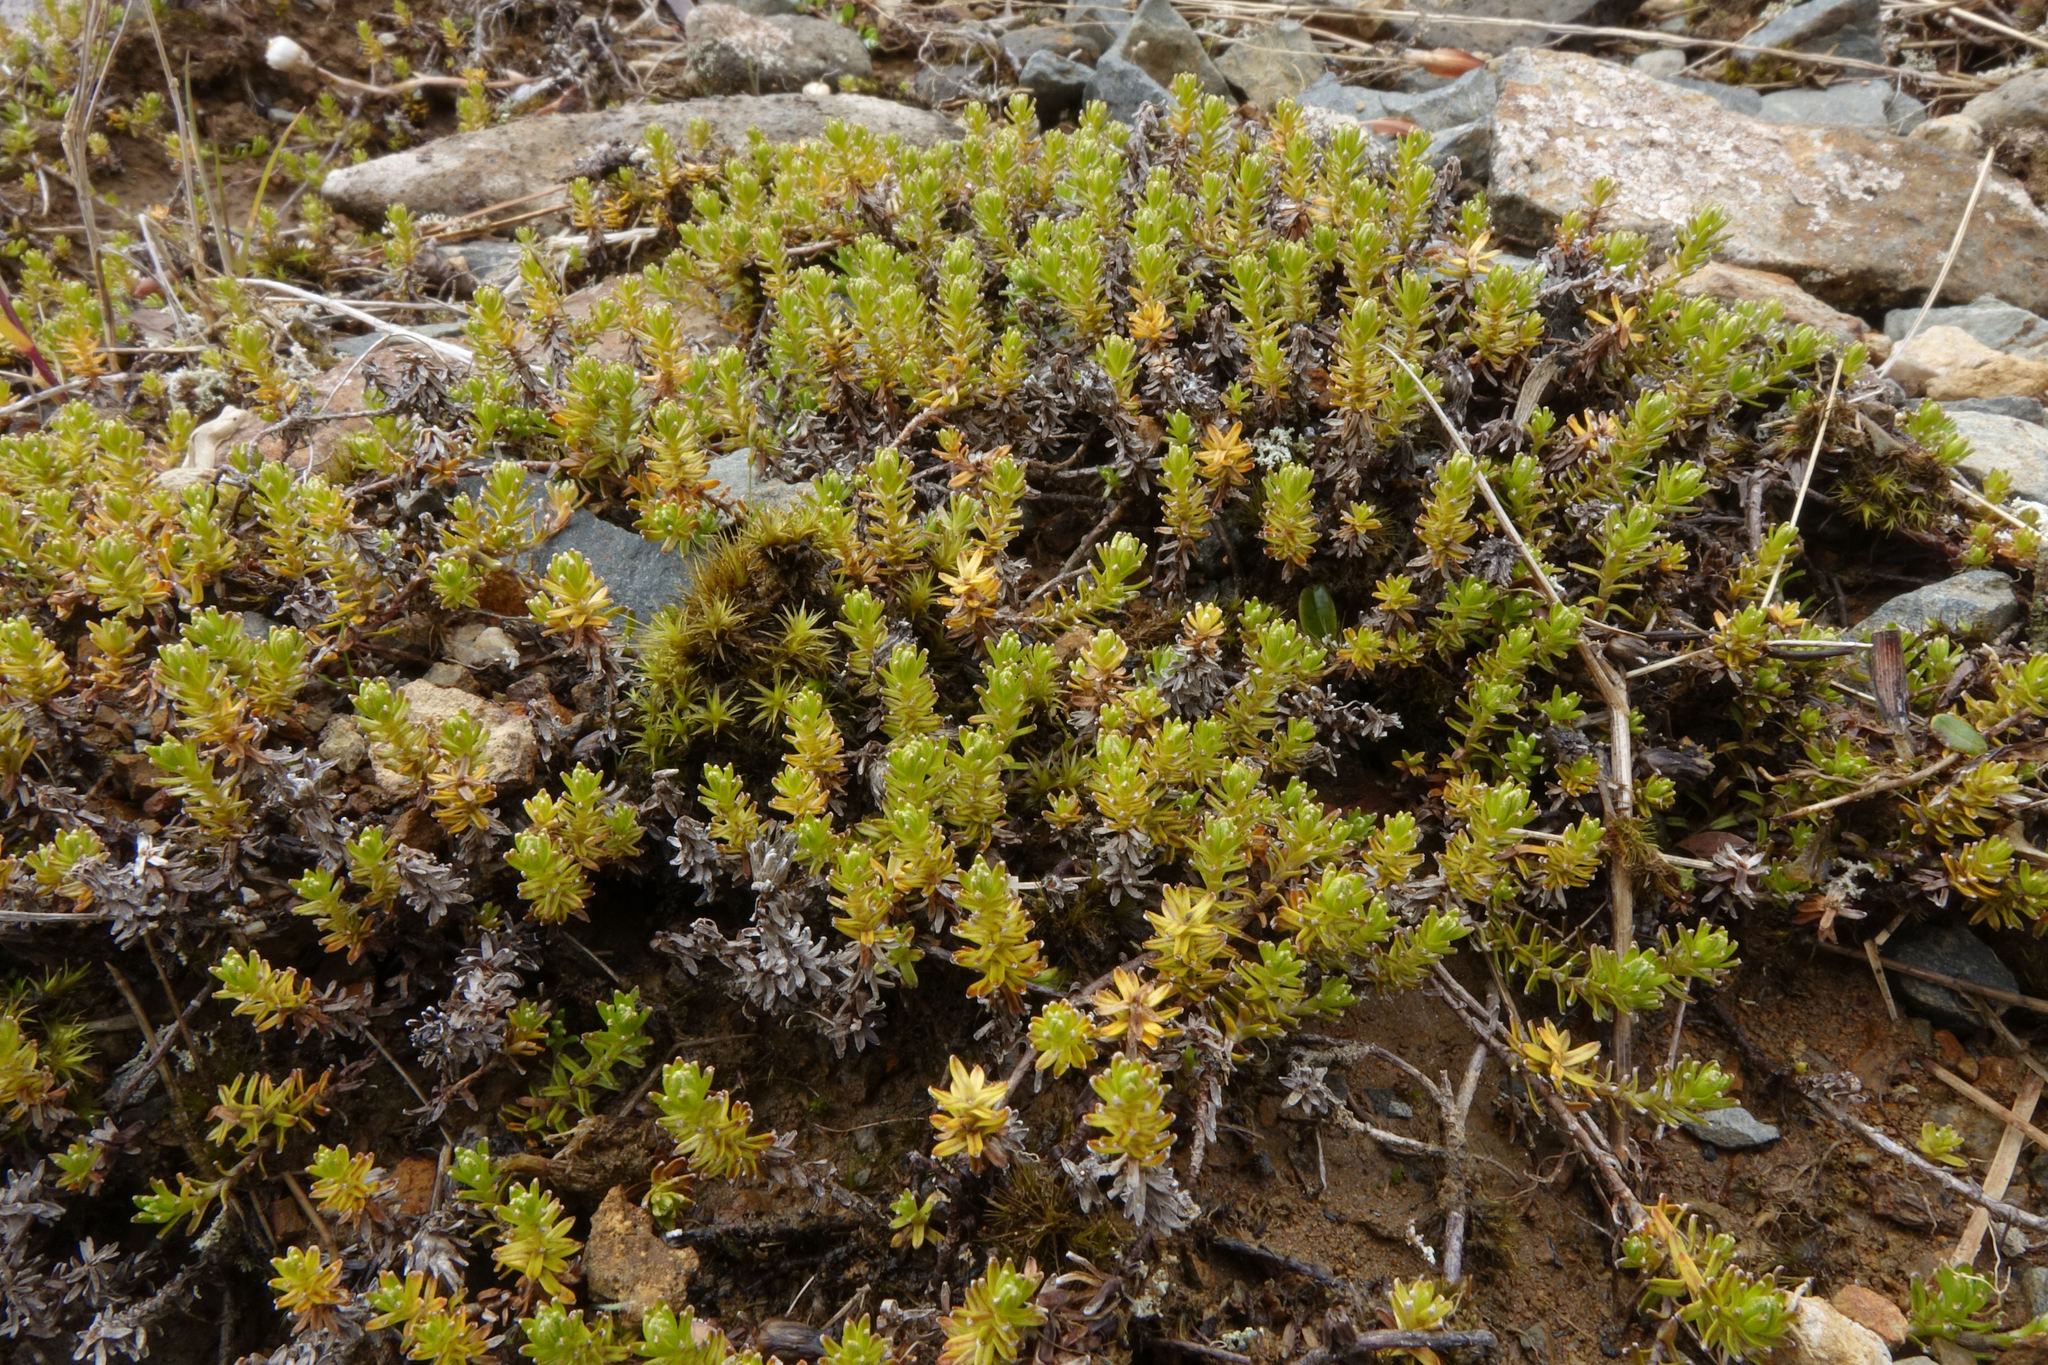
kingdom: Plantae
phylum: Tracheophyta
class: Magnoliopsida
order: Asterales
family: Asteraceae
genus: Raoulia
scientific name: Raoulia glabra
